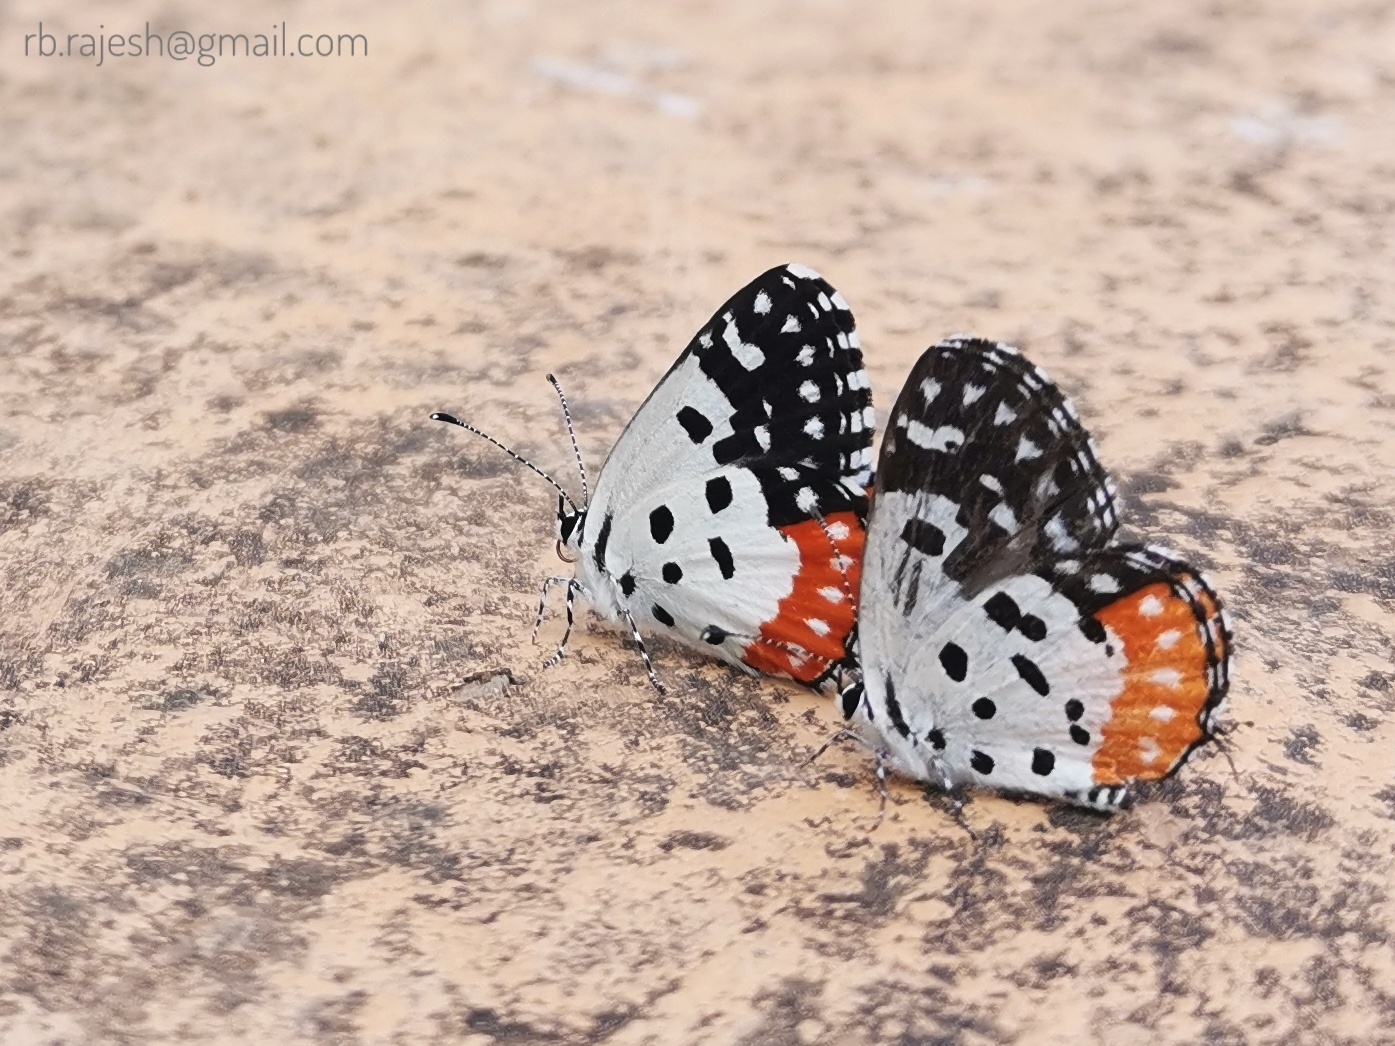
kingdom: Animalia
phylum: Arthropoda
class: Insecta
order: Lepidoptera
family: Lycaenidae
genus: Talicada
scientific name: Talicada nyseus
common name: Red pierrot
